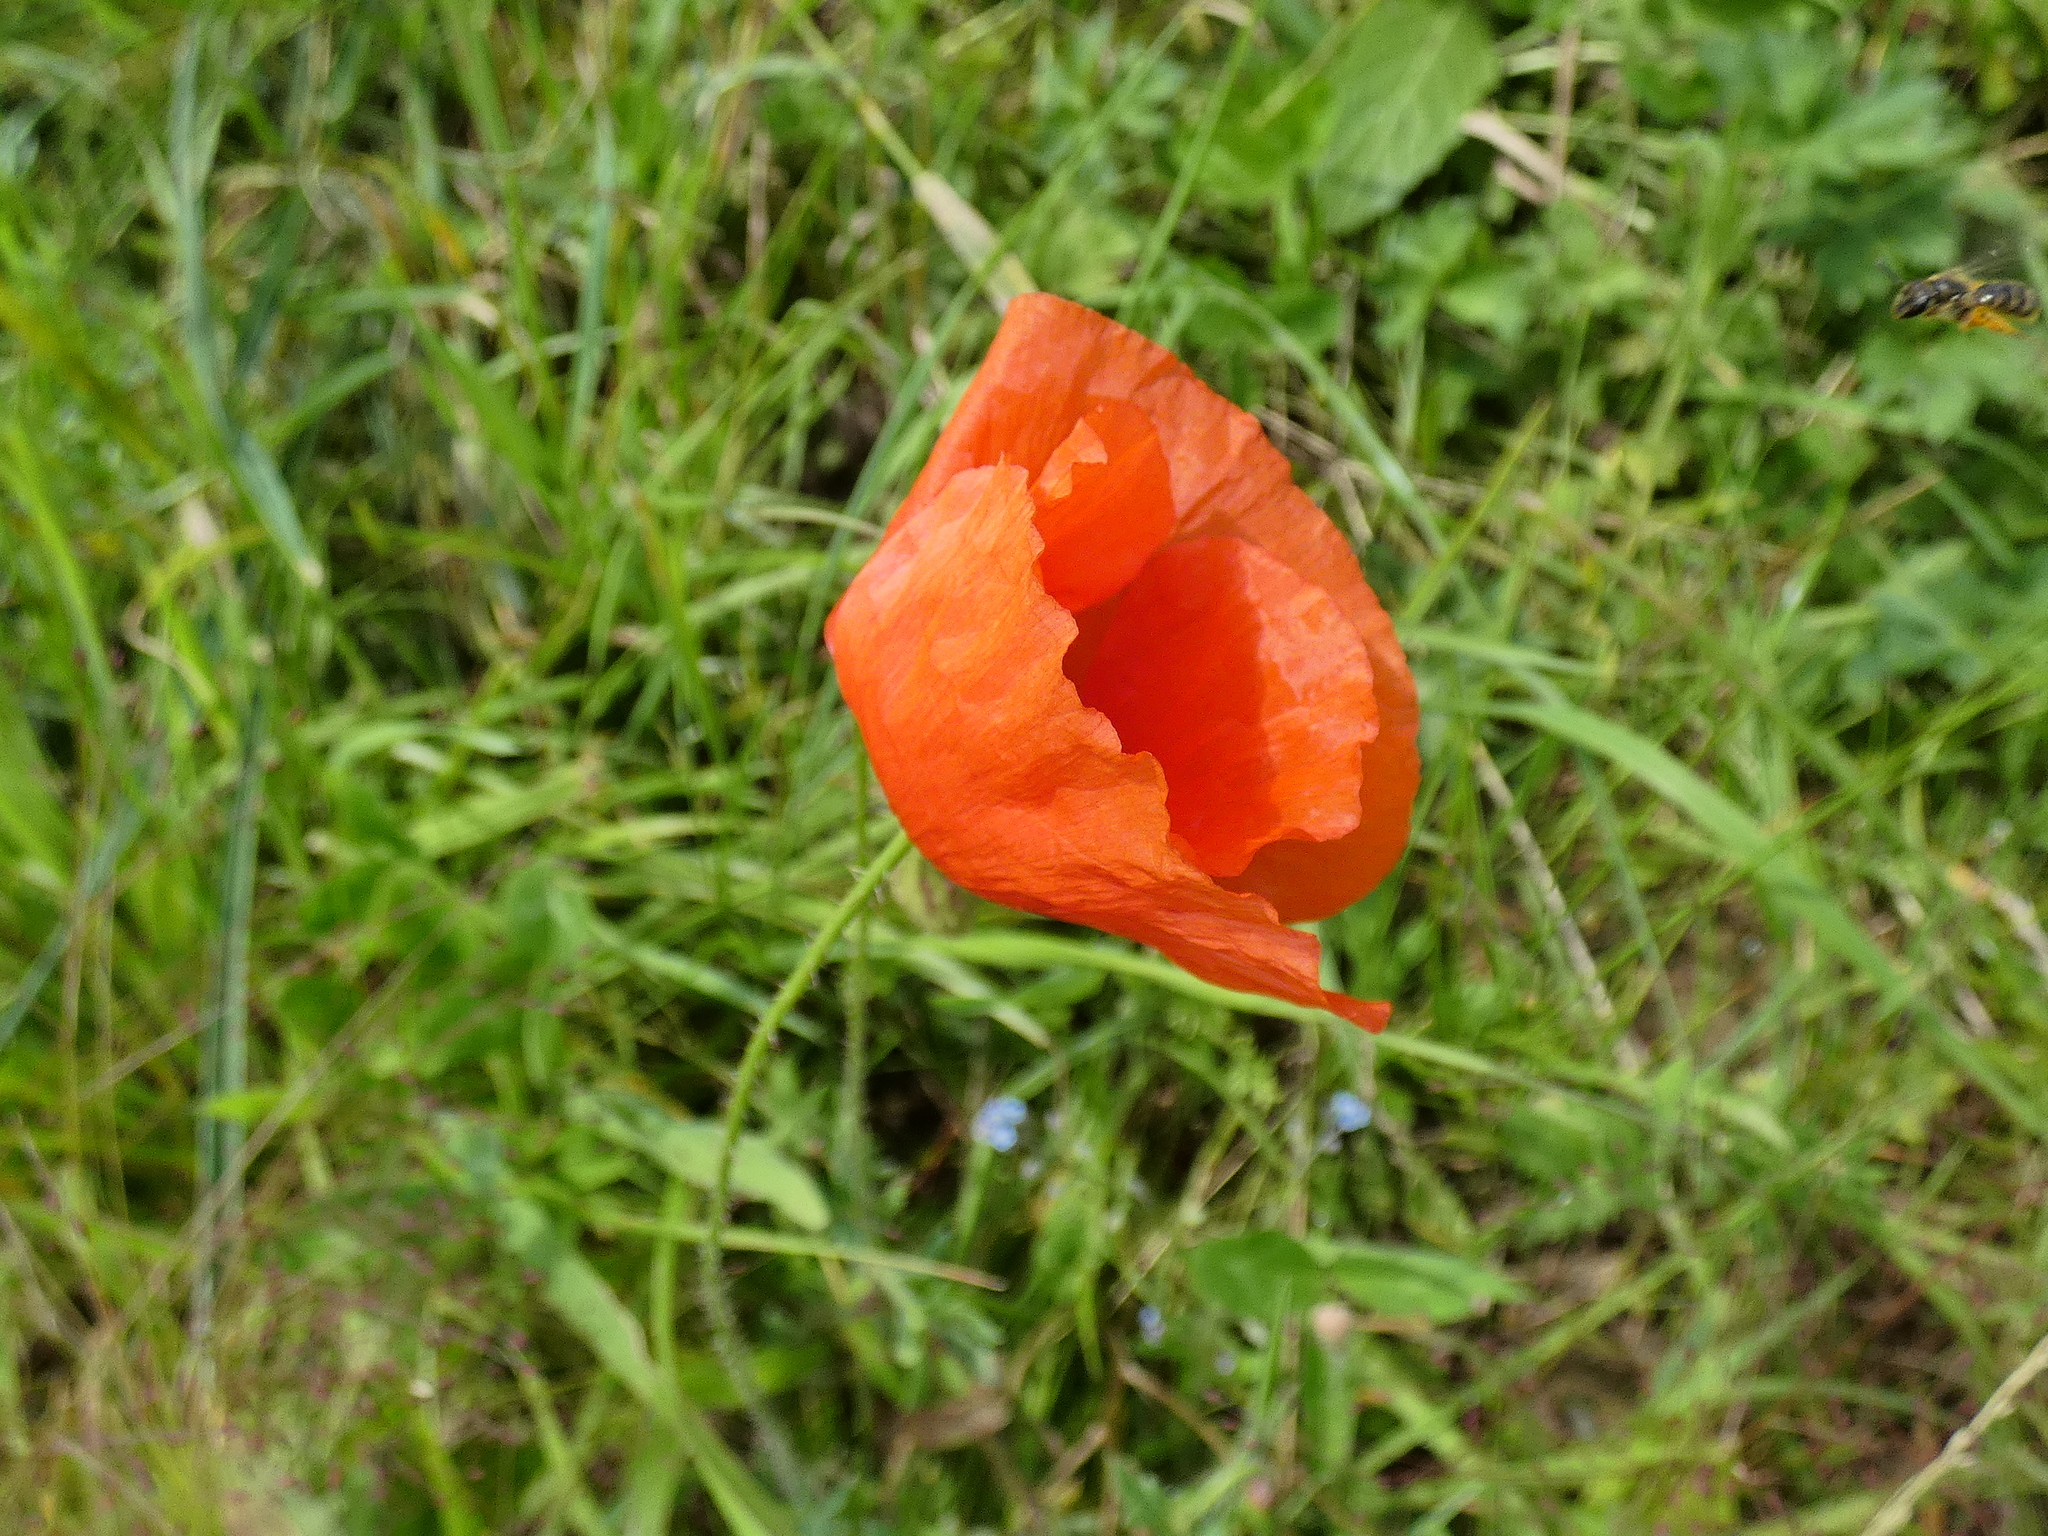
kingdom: Plantae
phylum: Tracheophyta
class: Magnoliopsida
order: Ranunculales
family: Papaveraceae
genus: Papaver
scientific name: Papaver rhoeas
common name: Corn poppy
